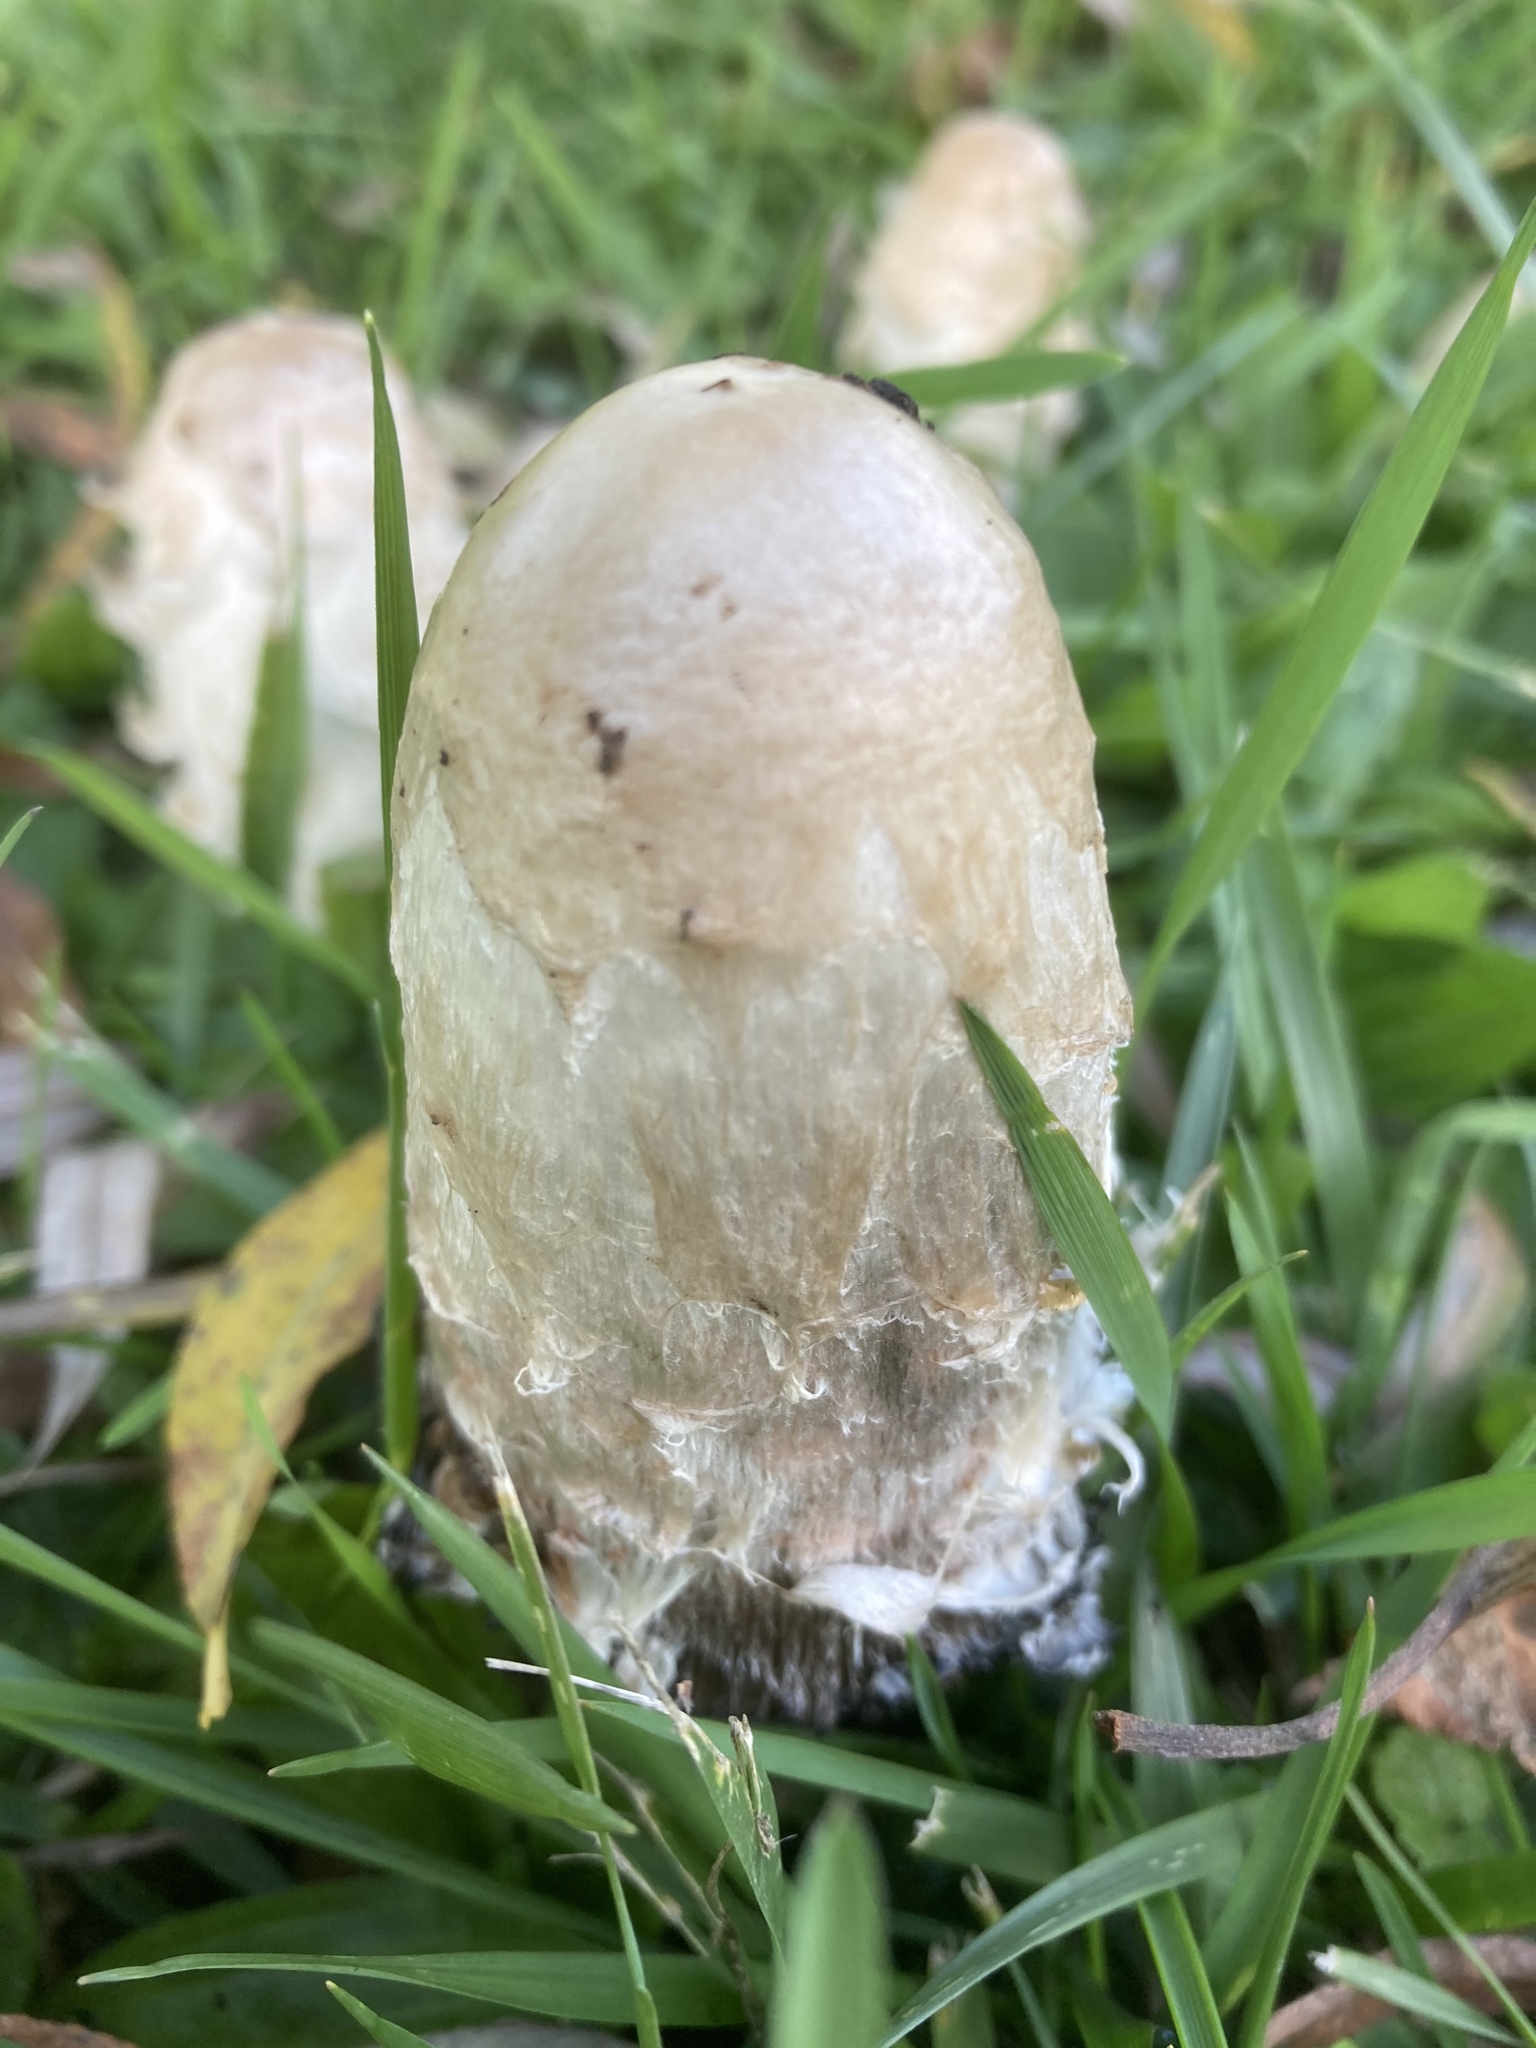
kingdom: Fungi
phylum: Basidiomycota
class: Agaricomycetes
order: Agaricales
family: Agaricaceae
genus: Coprinus
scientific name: Coprinus comatus
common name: Lawyer's wig
